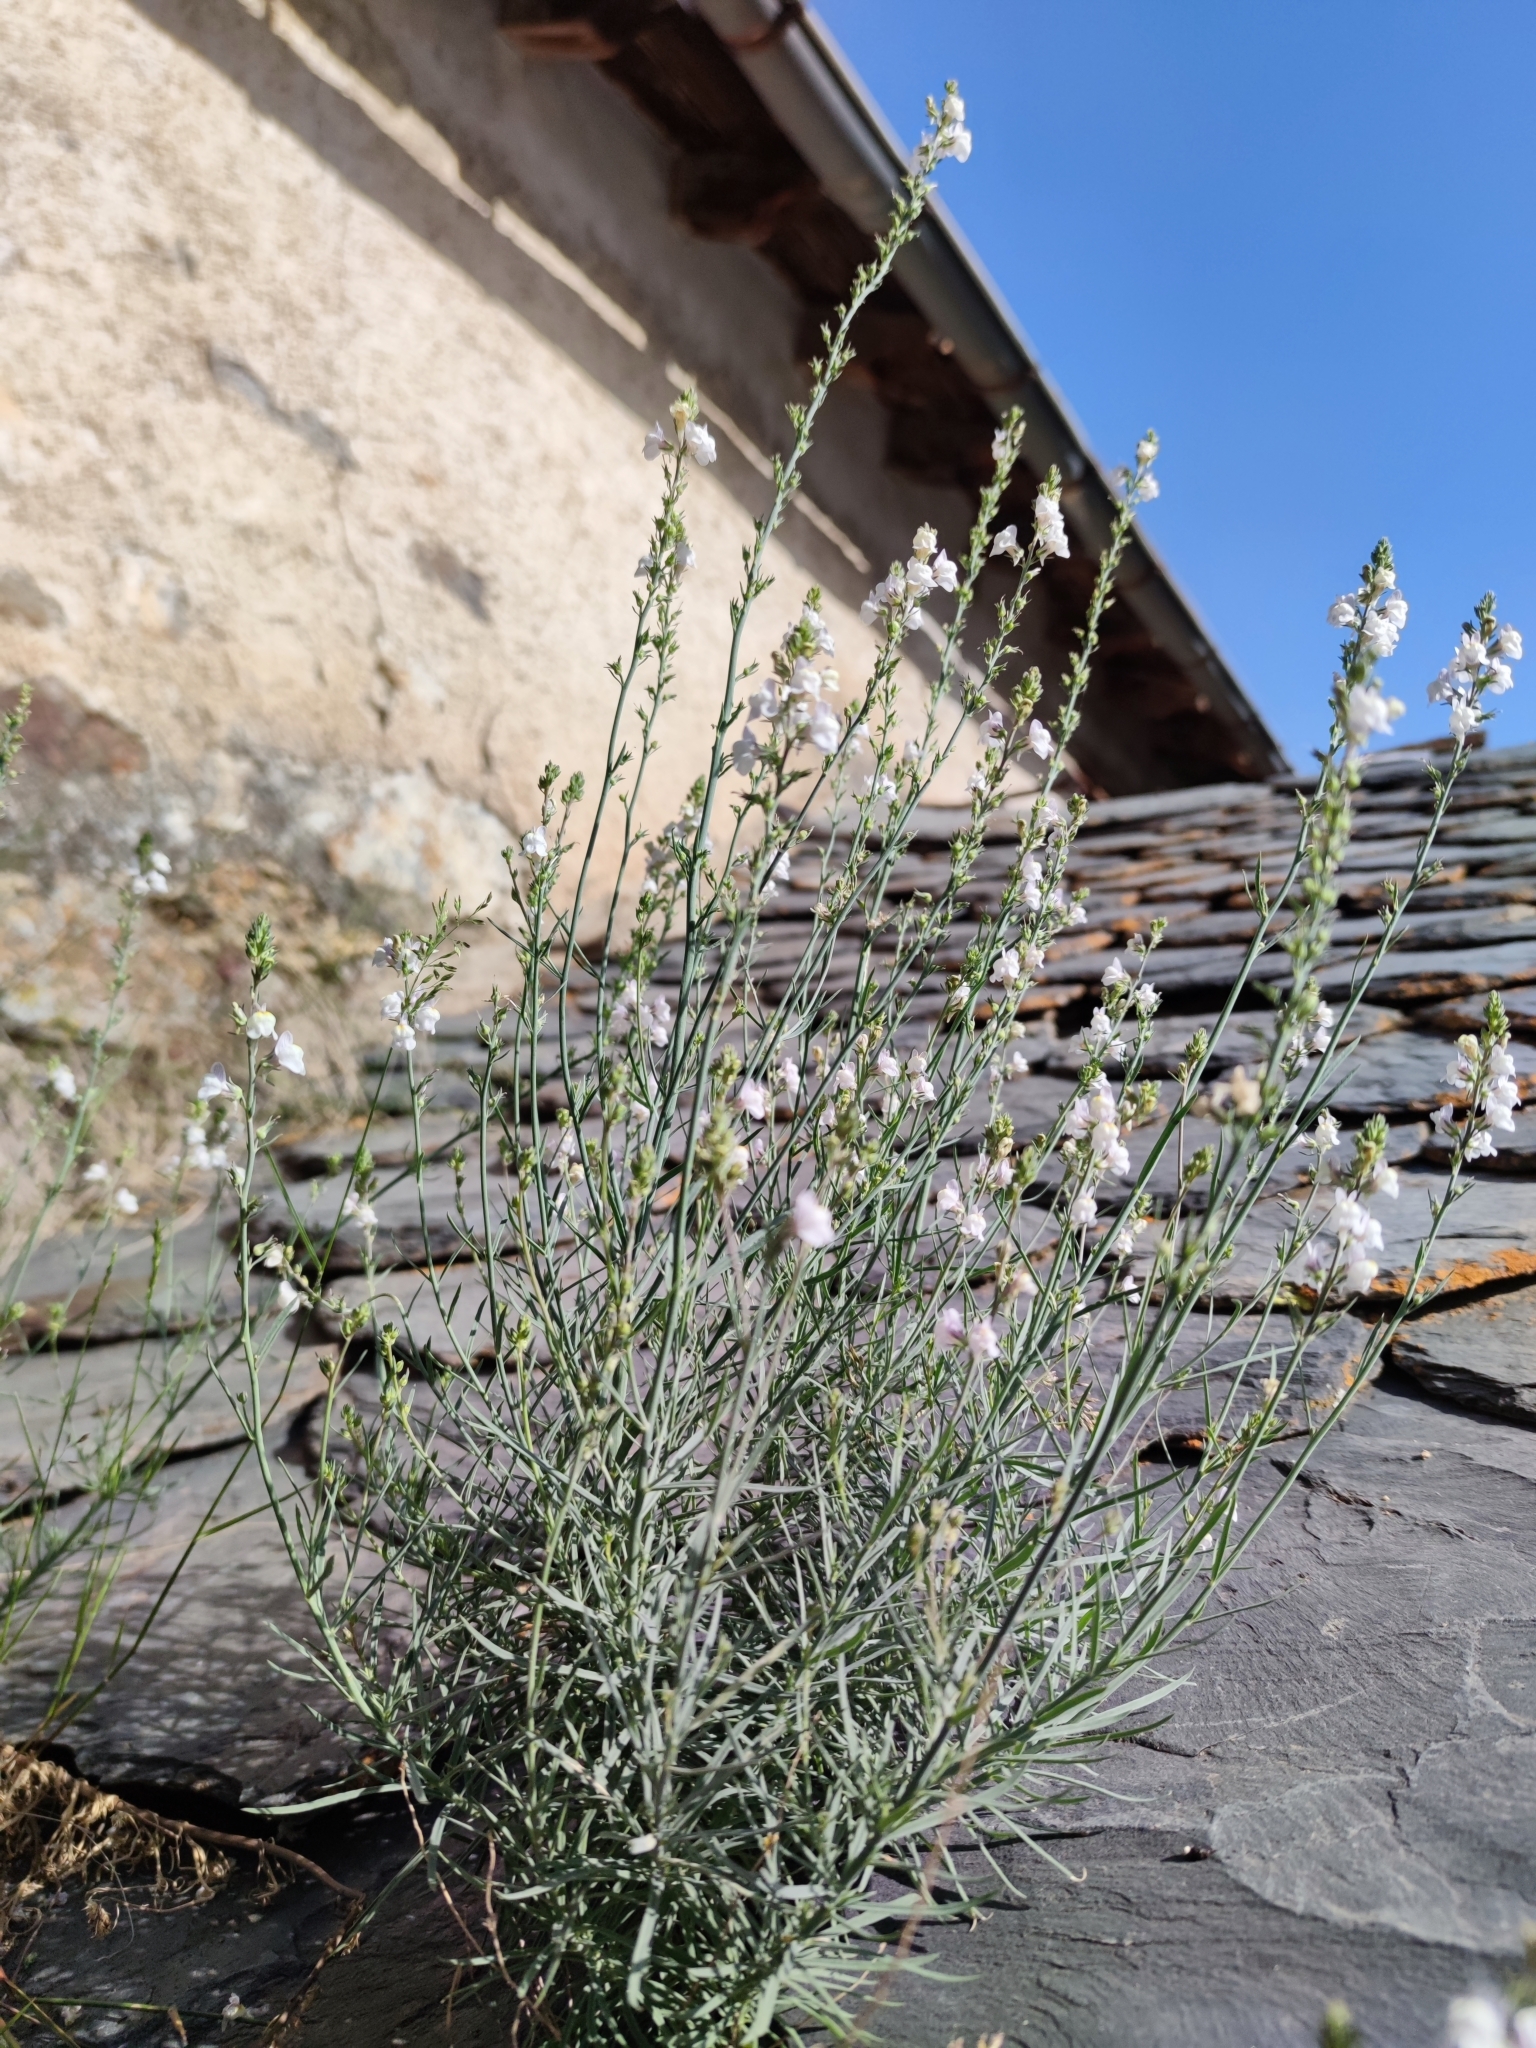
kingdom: Plantae
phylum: Tracheophyta
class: Magnoliopsida
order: Lamiales
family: Plantaginaceae
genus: Linaria
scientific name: Linaria repens
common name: Pale toadflax
